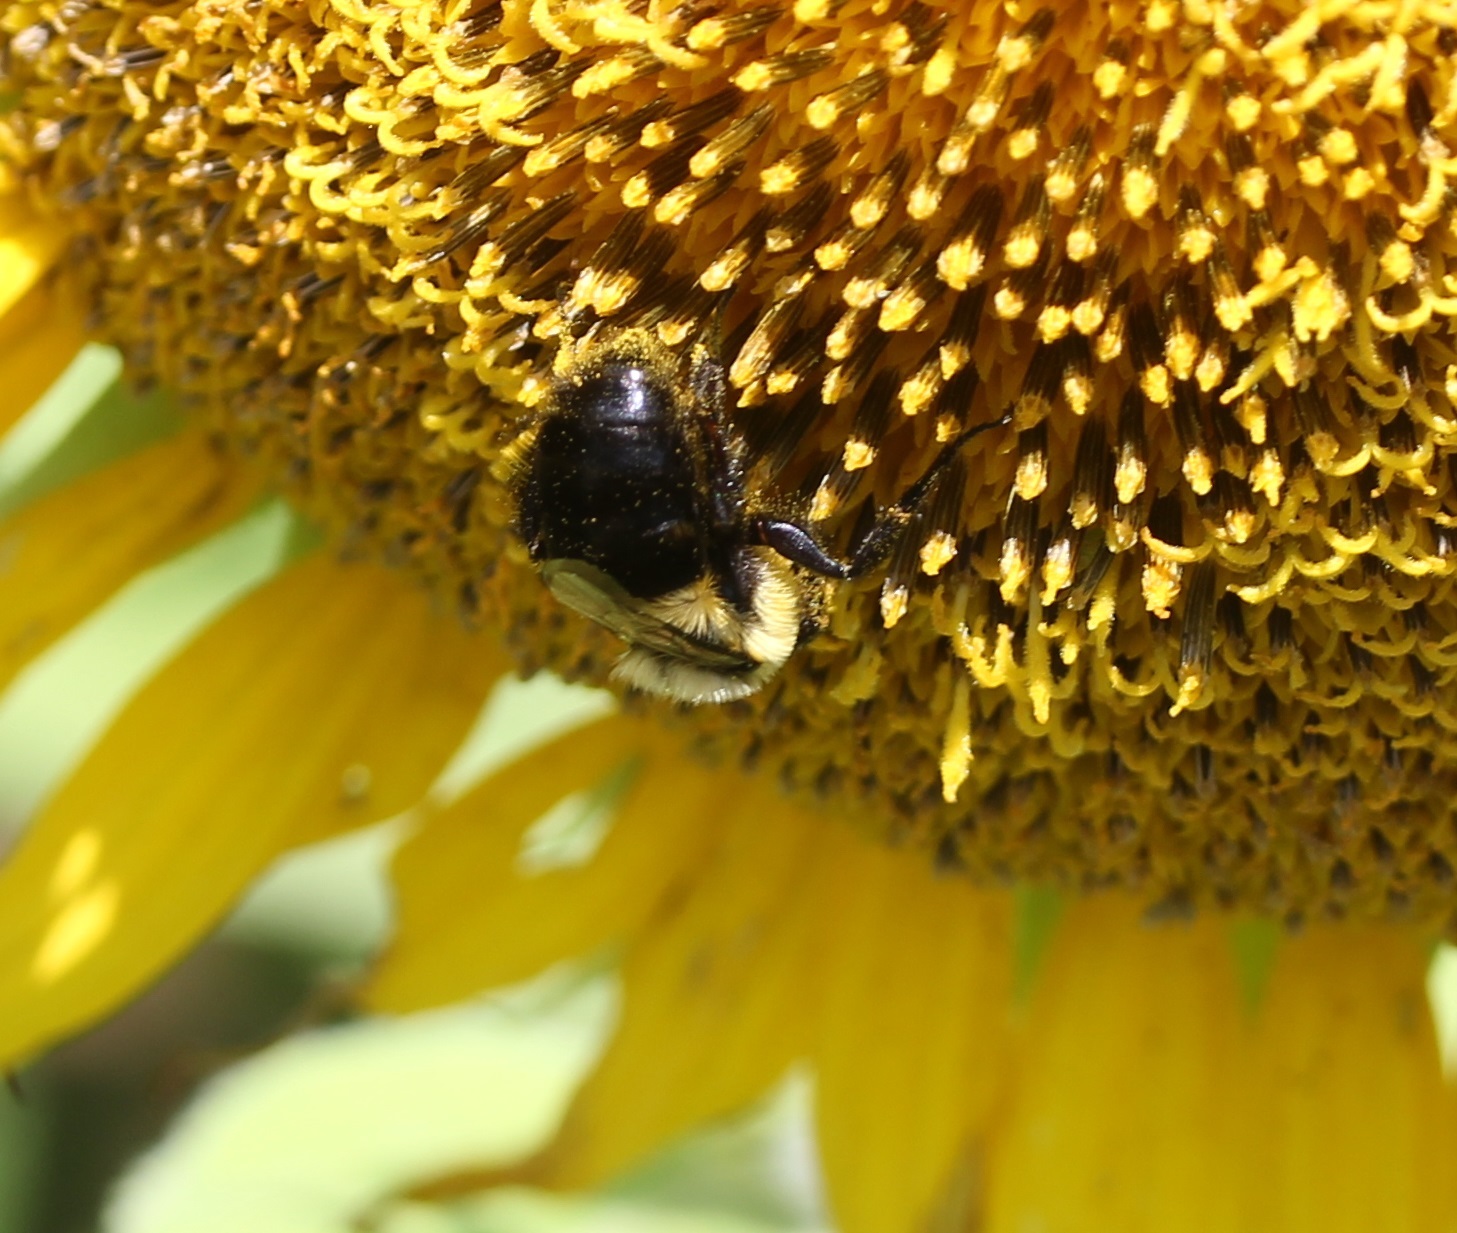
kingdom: Animalia
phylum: Arthropoda
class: Insecta
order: Hymenoptera
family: Apidae
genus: Bombus
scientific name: Bombus impatiens
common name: Common eastern bumble bee
